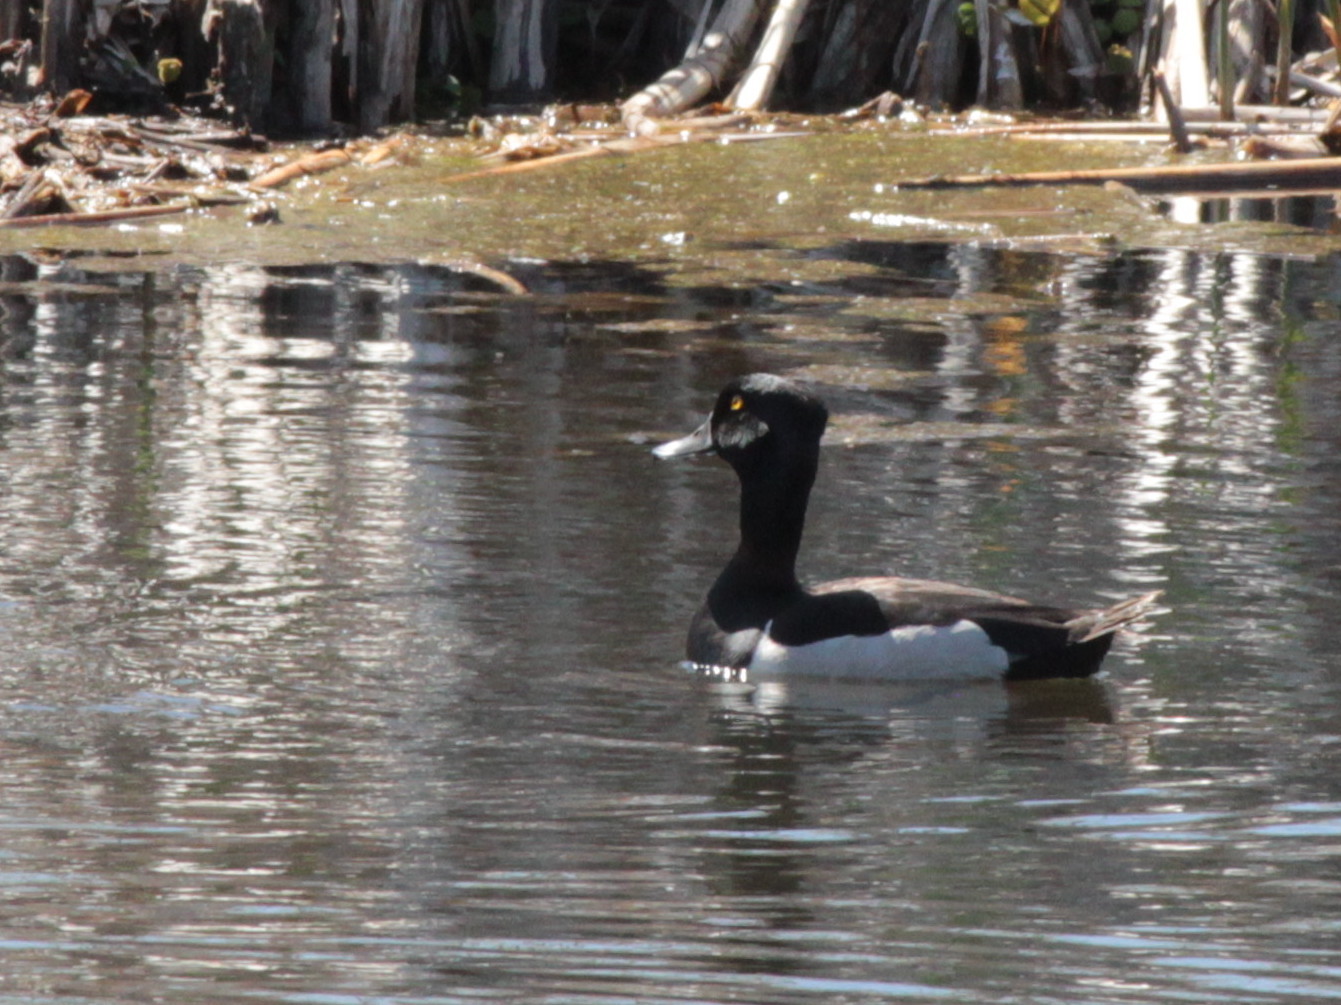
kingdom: Animalia
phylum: Chordata
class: Aves
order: Anseriformes
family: Anatidae
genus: Aythya
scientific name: Aythya collaris
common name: Ring-necked duck
